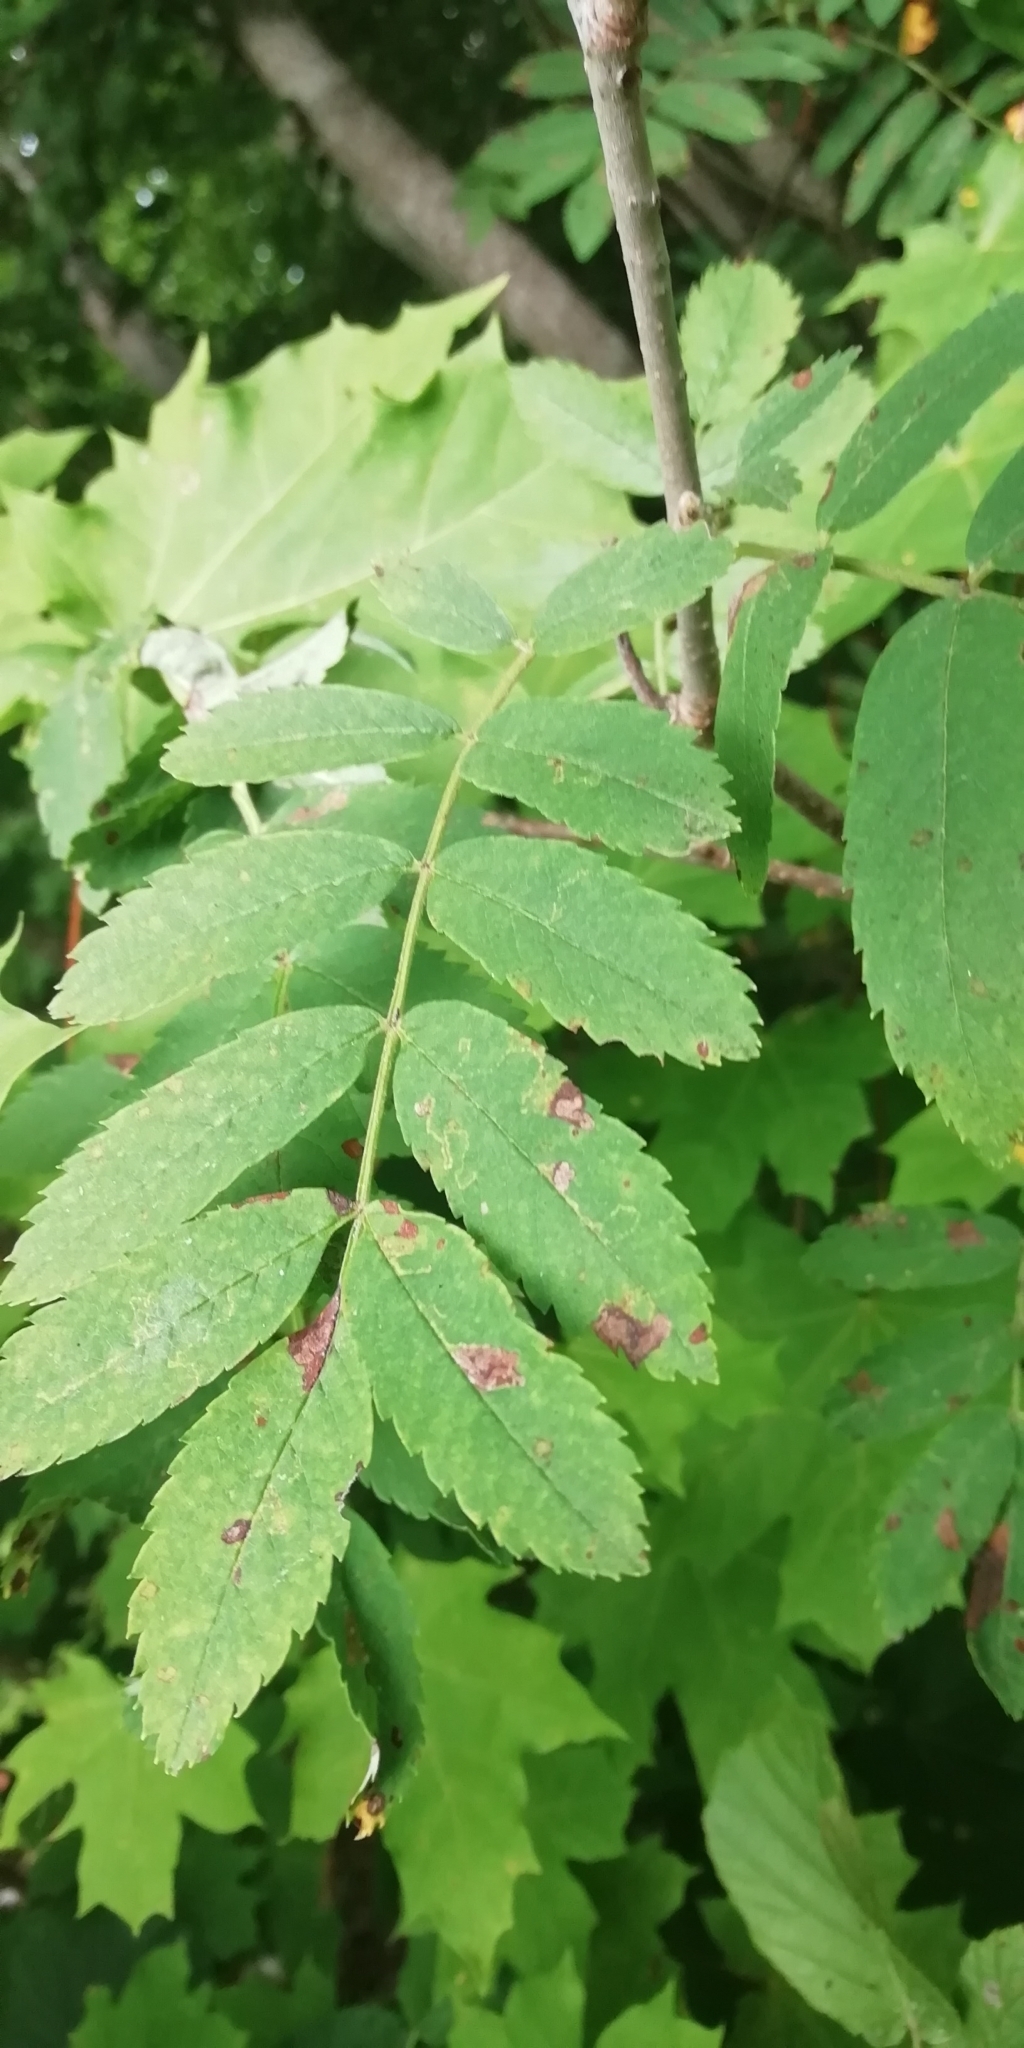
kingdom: Plantae
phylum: Tracheophyta
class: Magnoliopsida
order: Rosales
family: Rosaceae
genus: Sorbus
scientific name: Sorbus aucuparia
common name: Rowan
